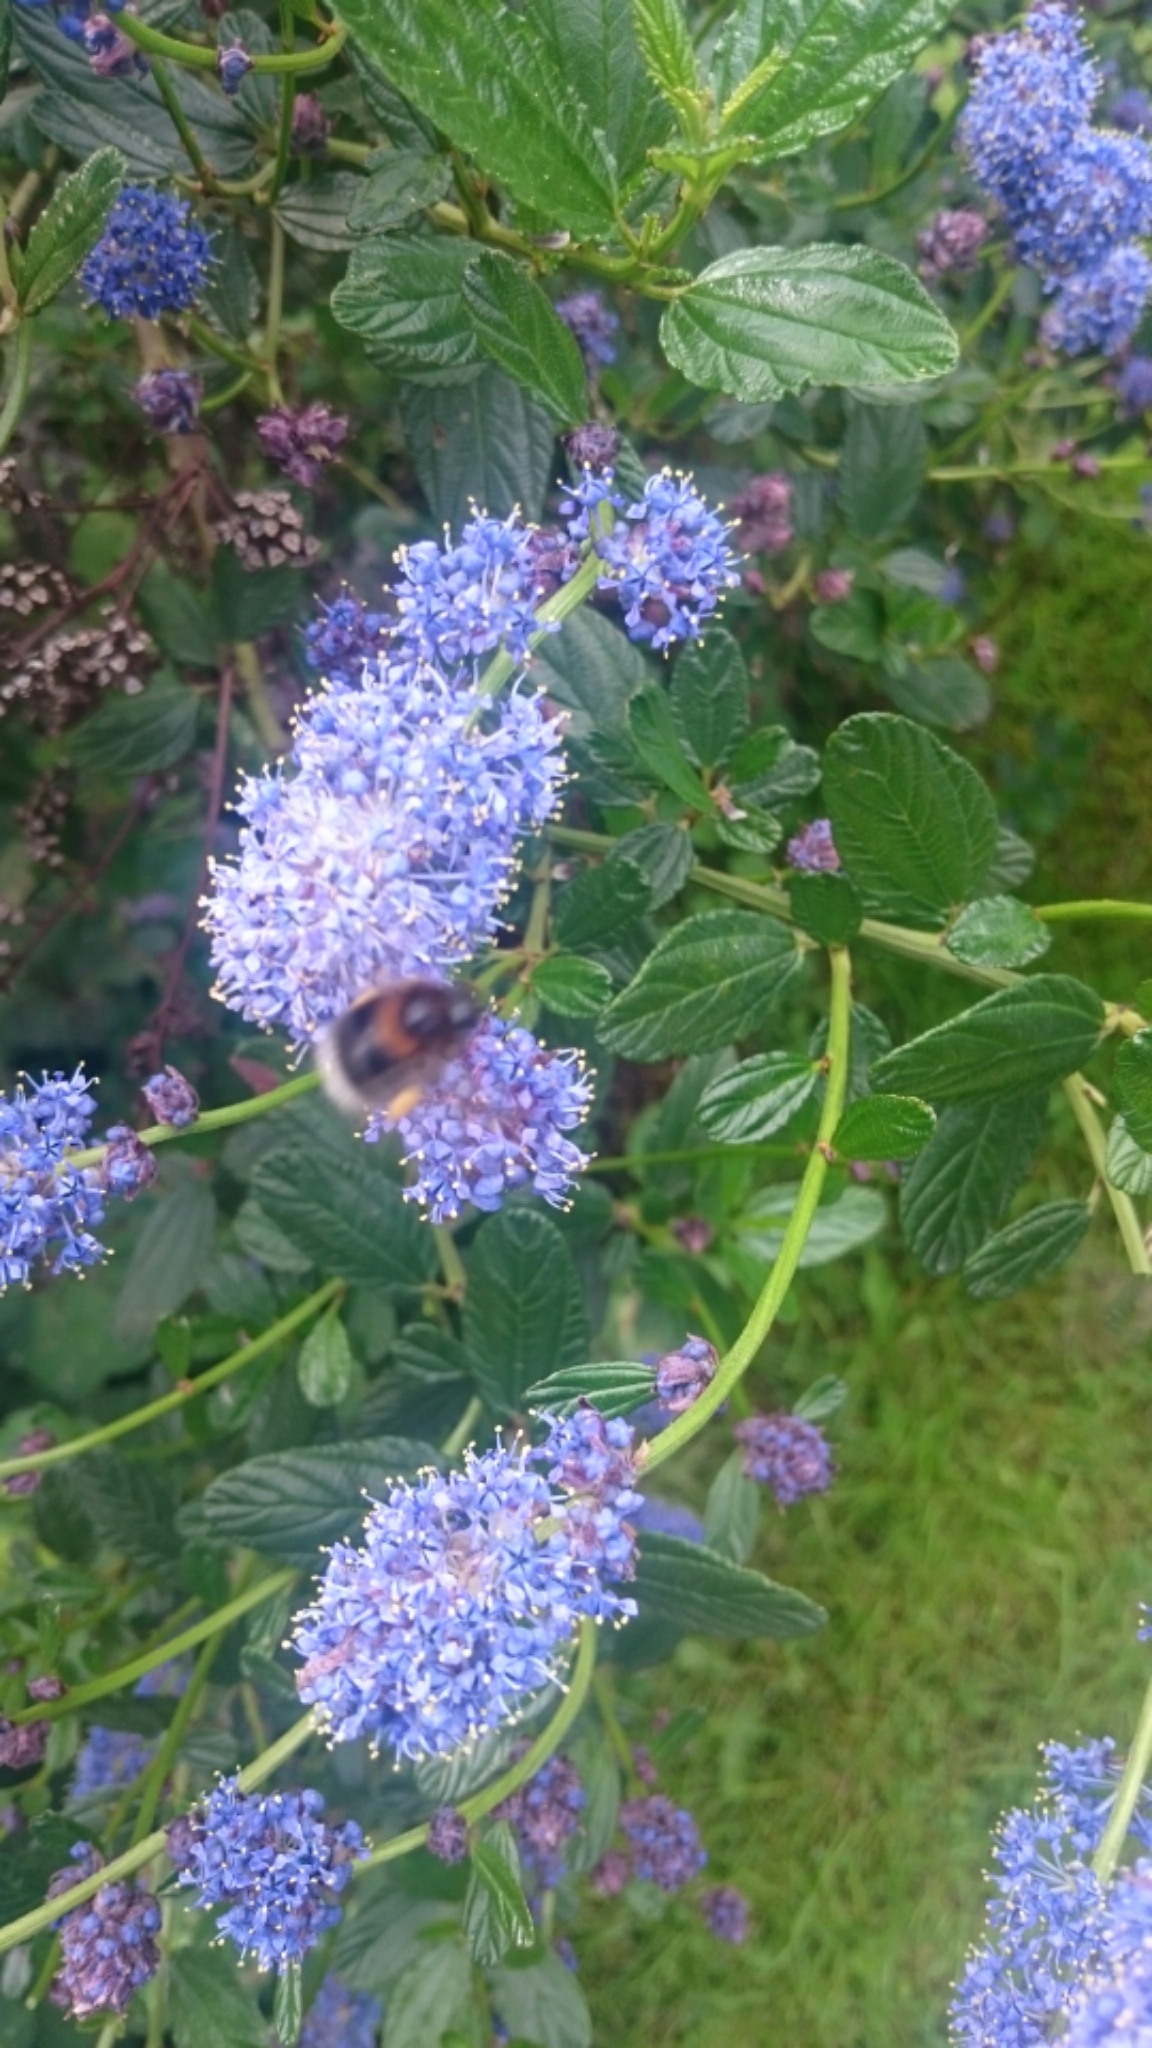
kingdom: Animalia
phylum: Arthropoda
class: Insecta
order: Hymenoptera
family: Apidae
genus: Bombus
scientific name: Bombus hypnorum
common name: New garden bumblebee
